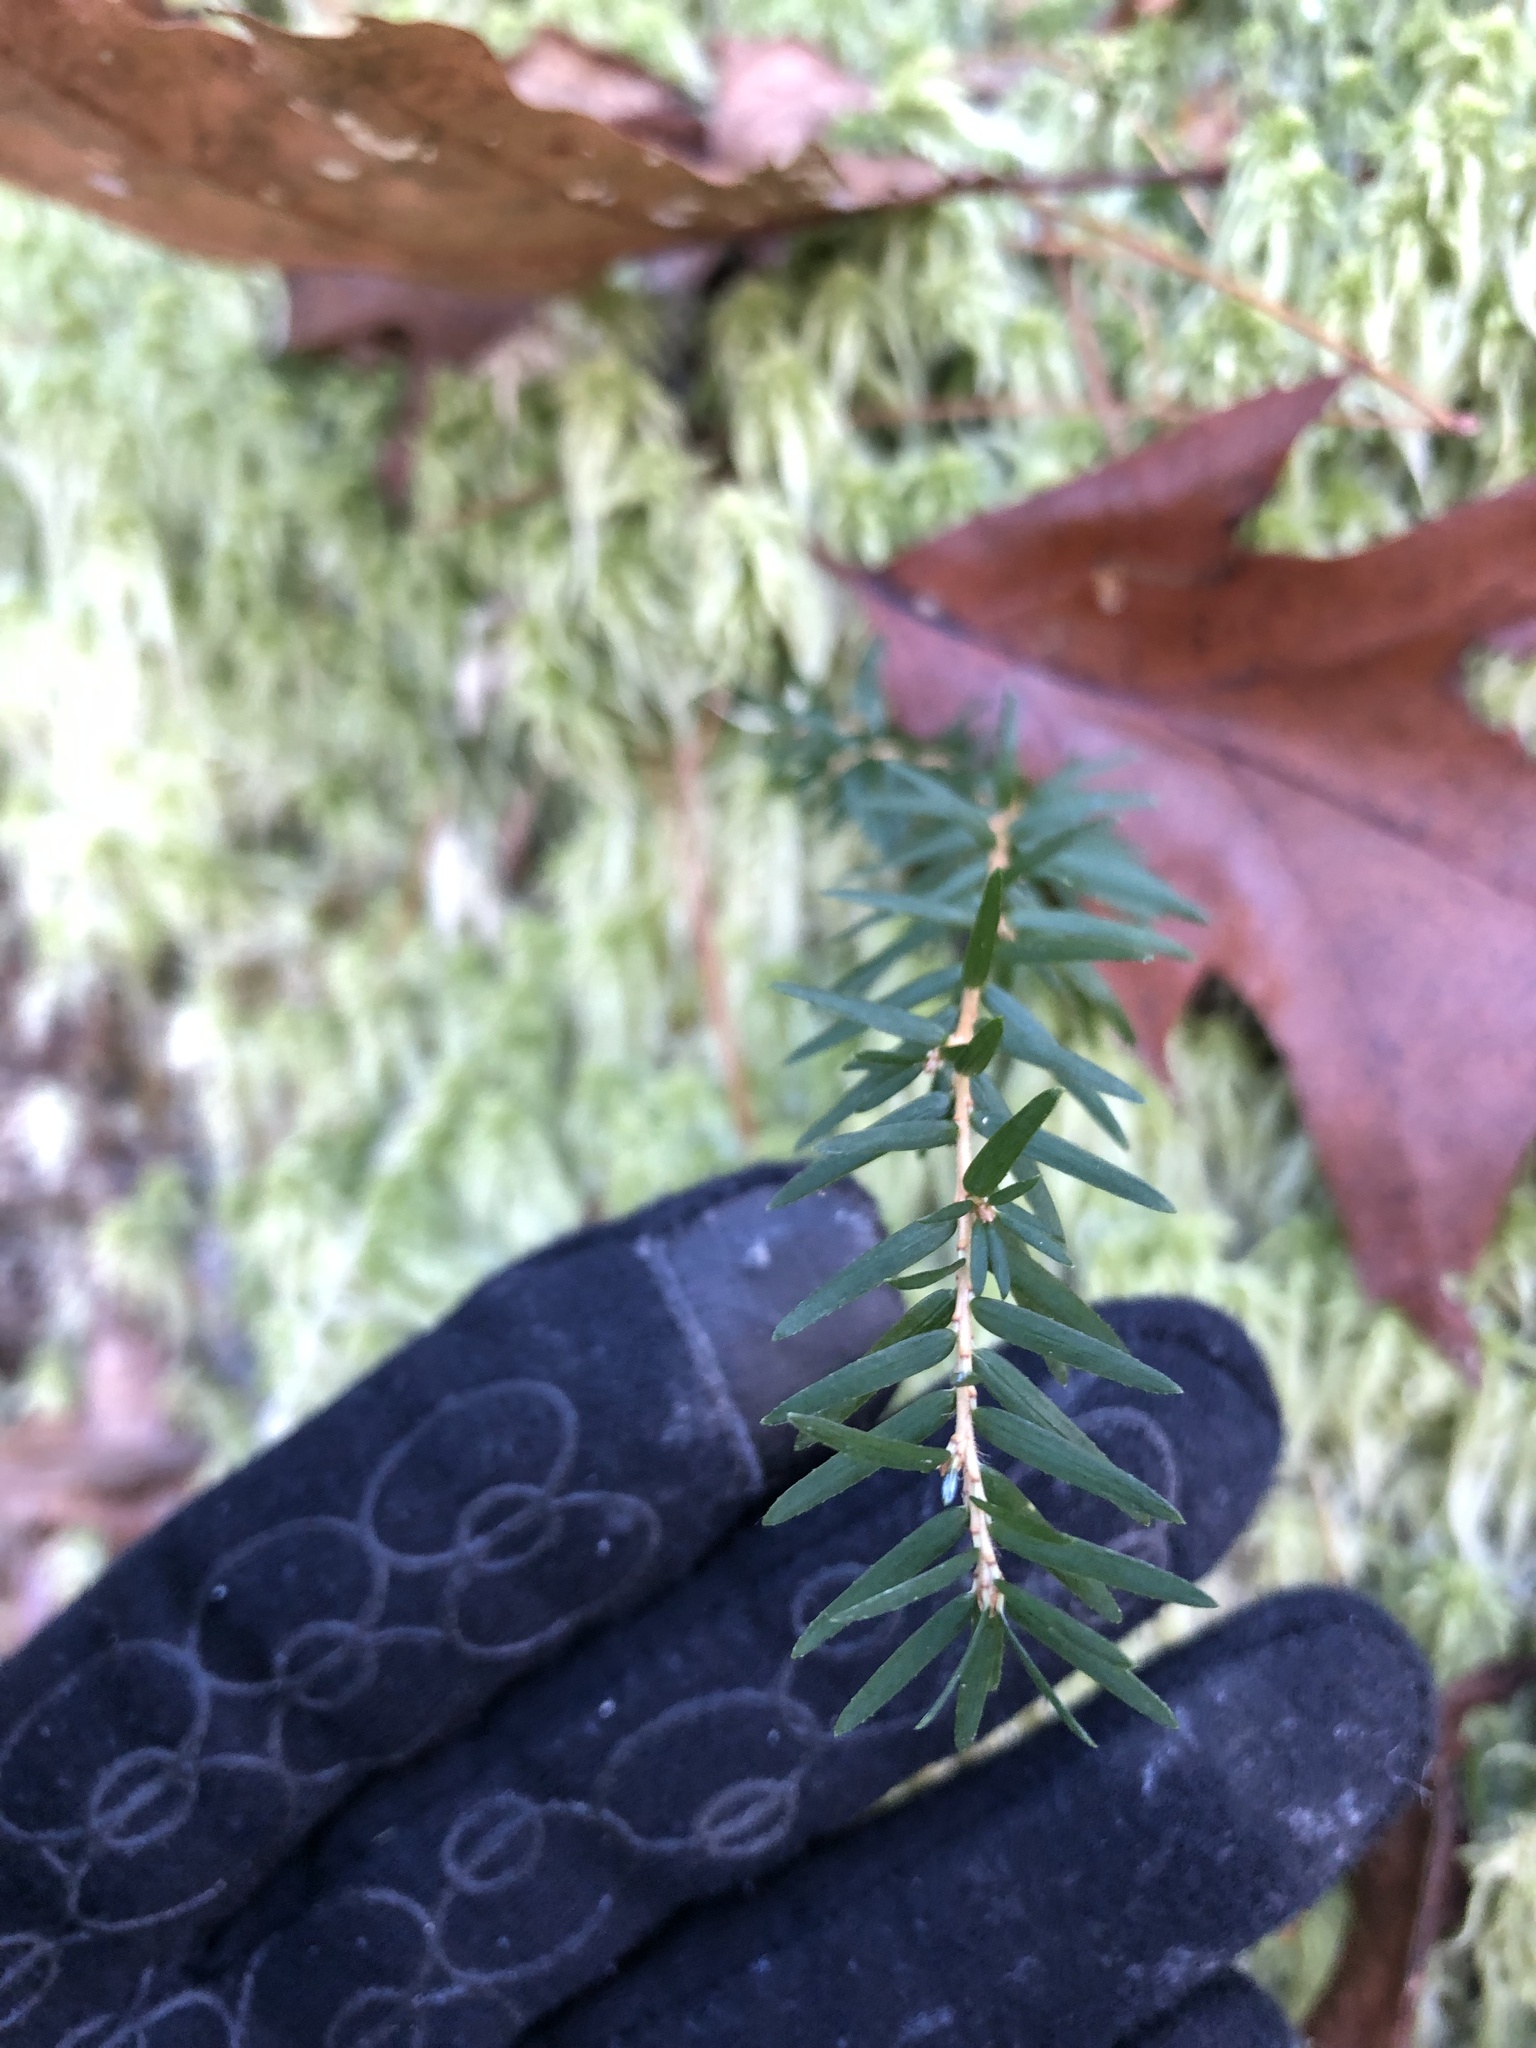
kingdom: Plantae
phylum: Tracheophyta
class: Pinopsida
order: Pinales
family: Pinaceae
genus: Tsuga
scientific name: Tsuga canadensis
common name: Eastern hemlock
